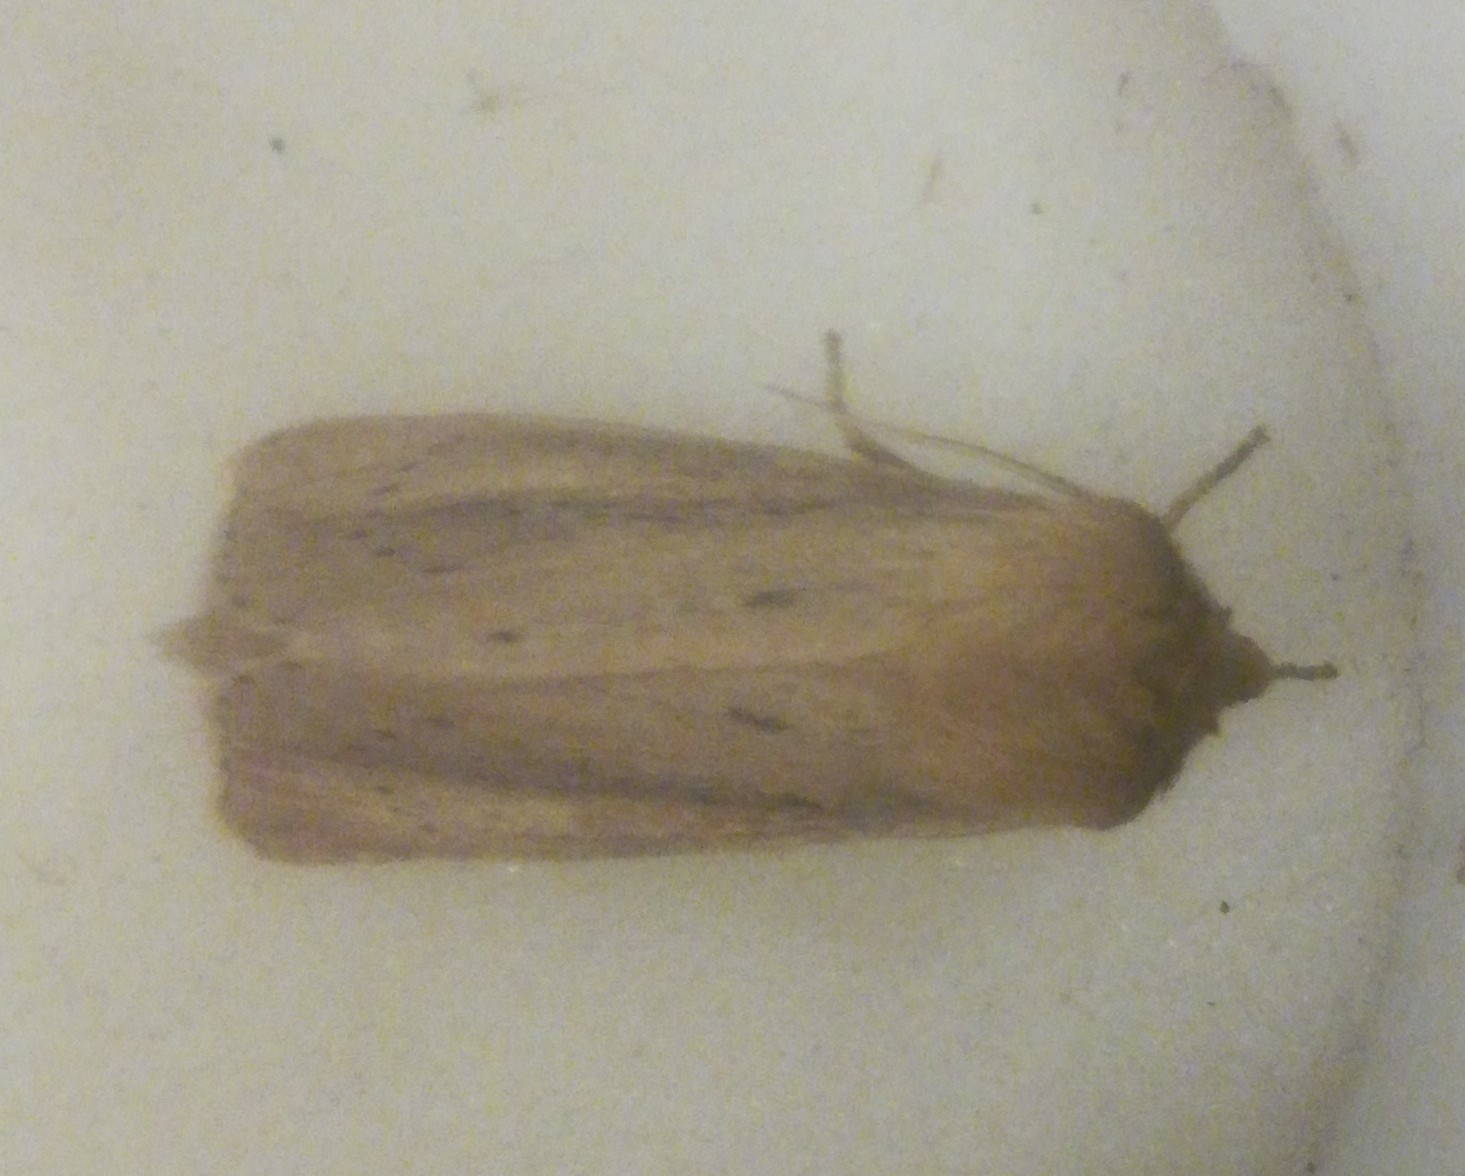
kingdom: Animalia
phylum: Arthropoda
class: Insecta
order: Lepidoptera
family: Noctuidae
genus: Globia
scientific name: Globia sparganii
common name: Webb's wainscot
